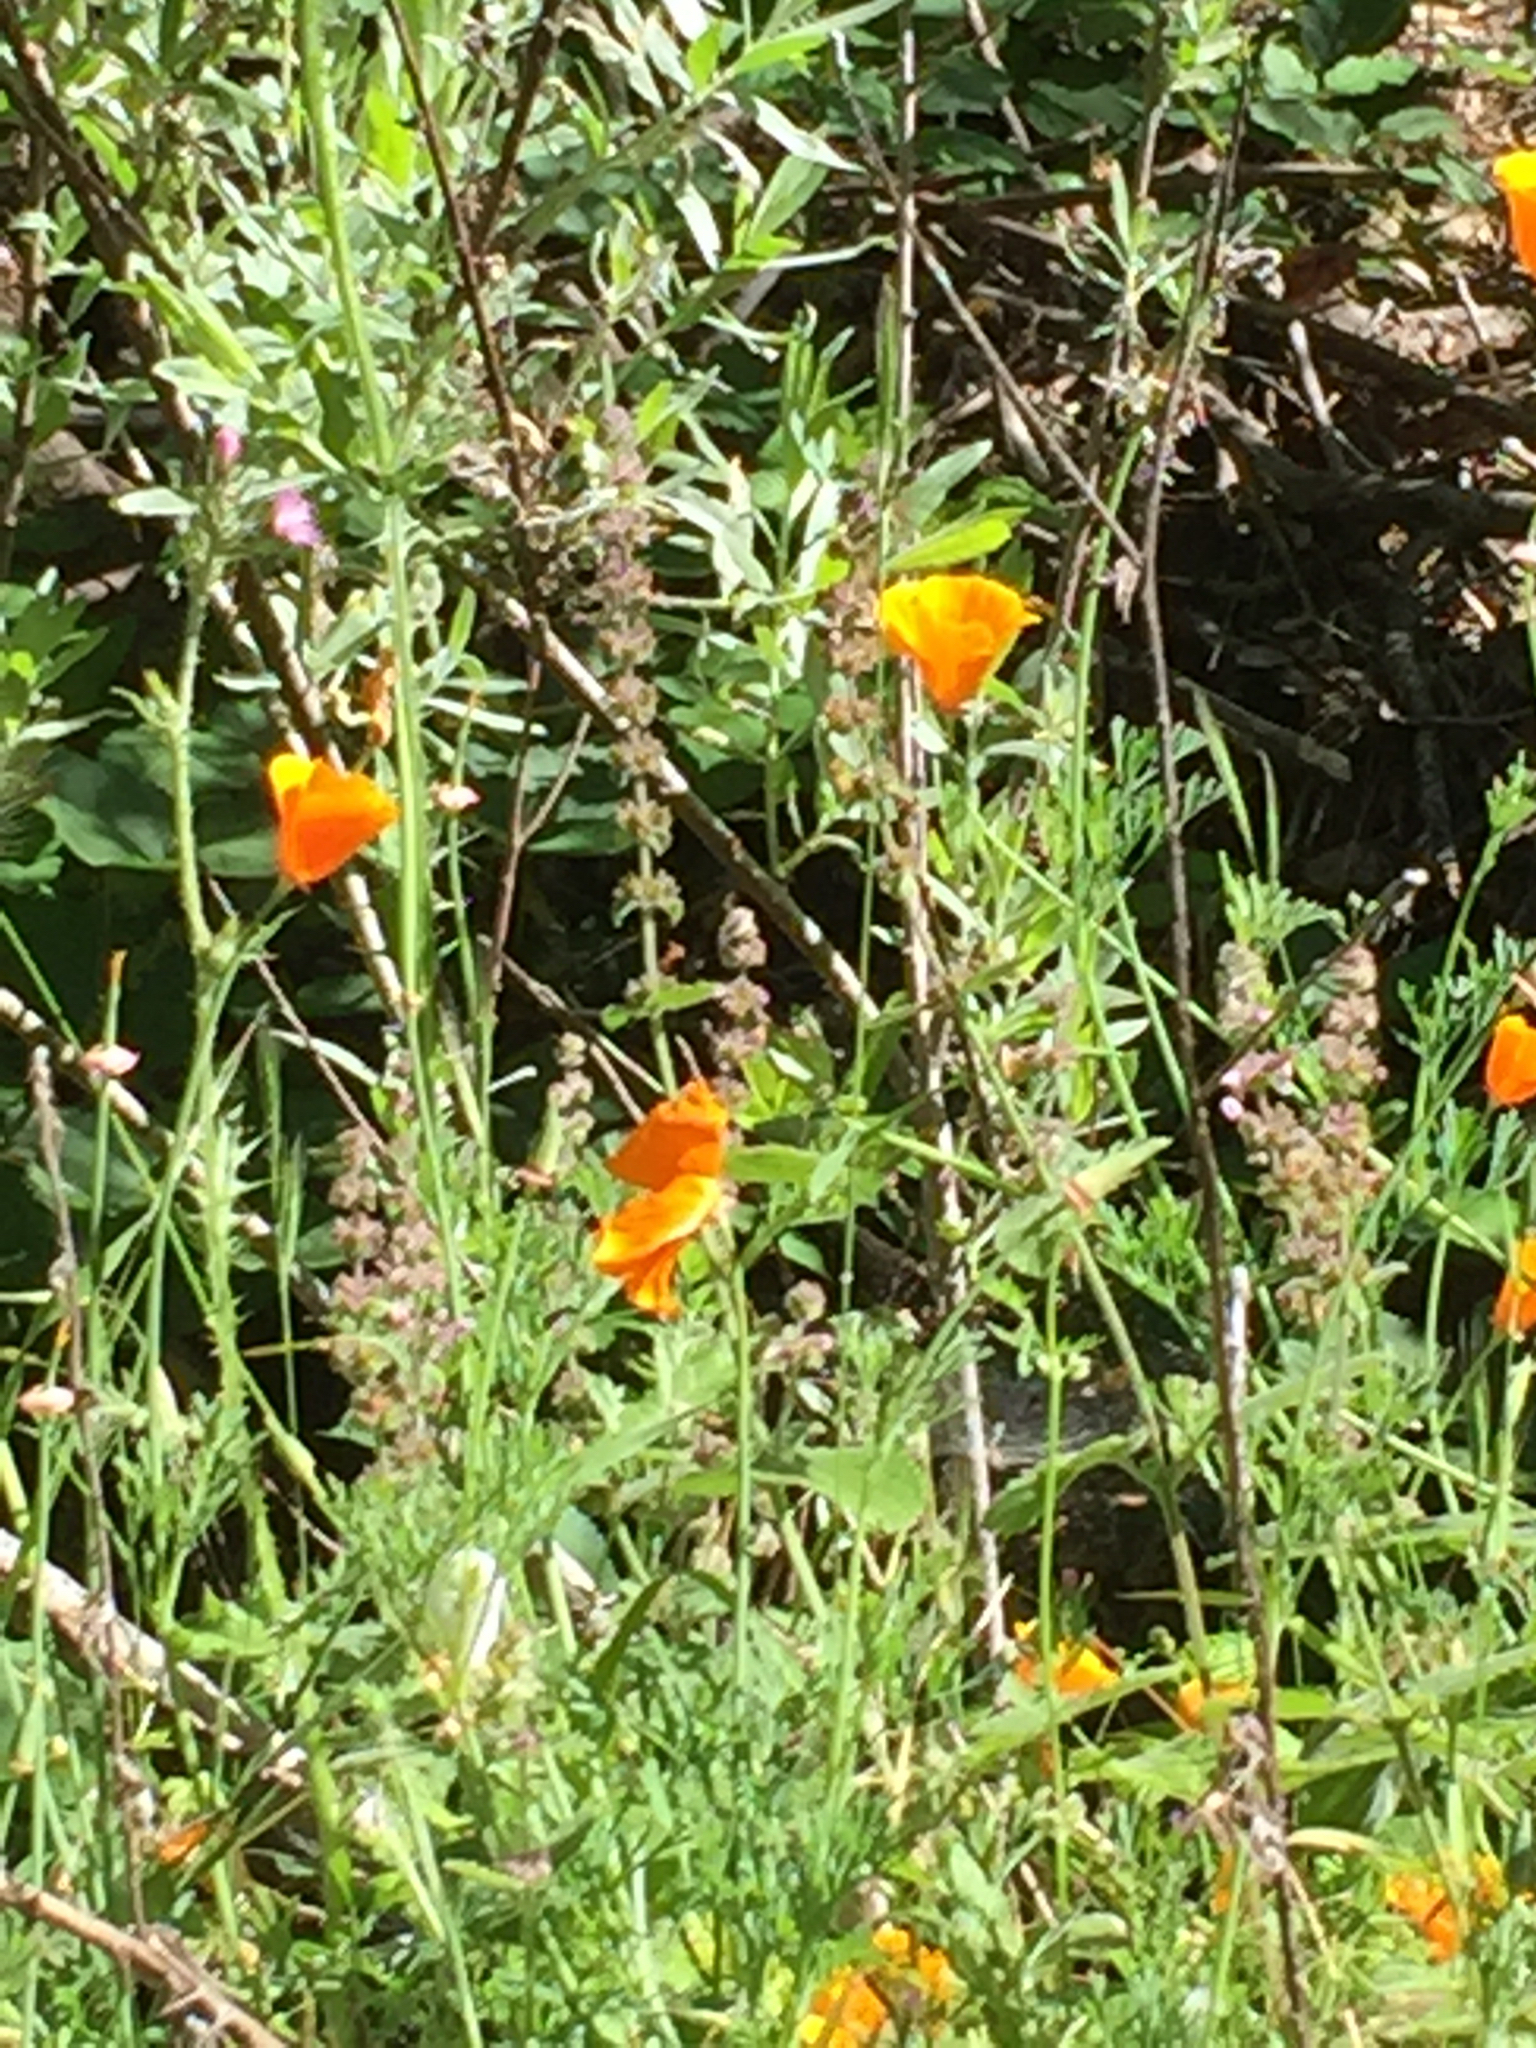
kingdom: Plantae
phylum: Tracheophyta
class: Magnoliopsida
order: Ranunculales
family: Papaveraceae
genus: Eschscholzia
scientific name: Eschscholzia californica
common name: California poppy
